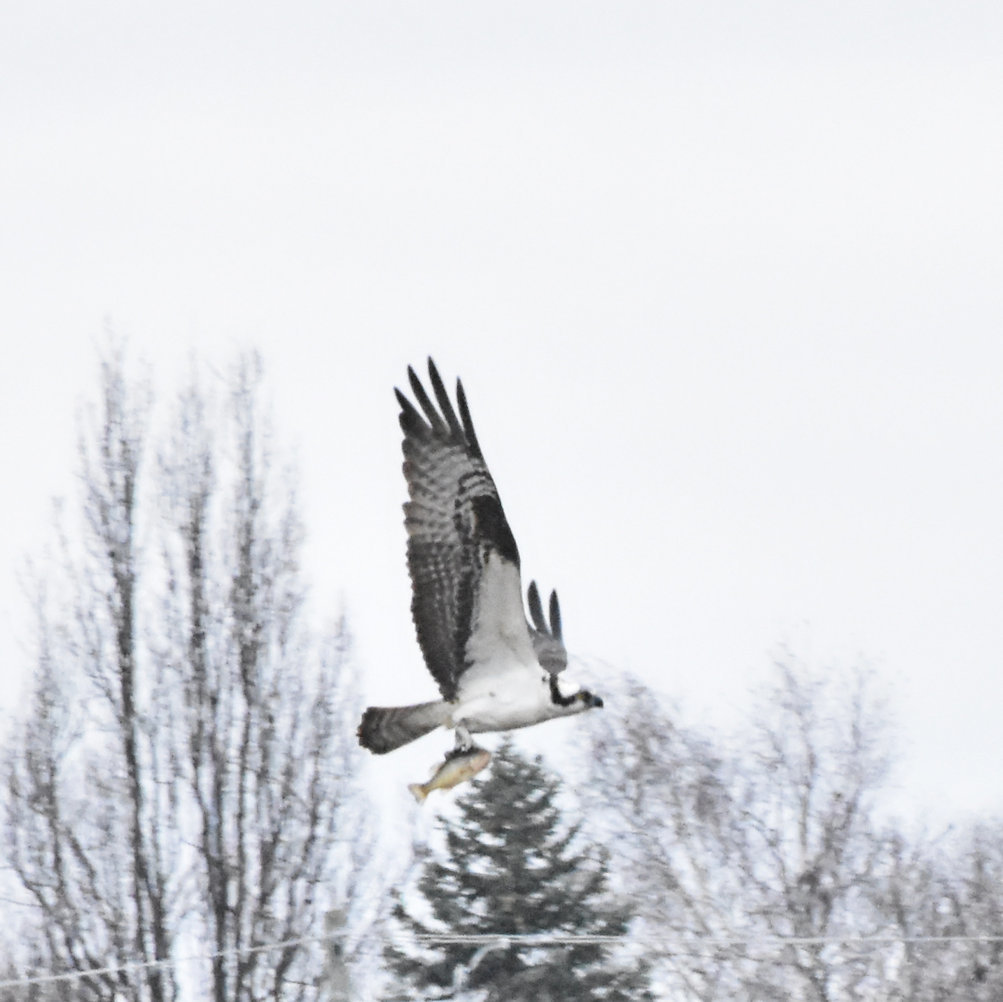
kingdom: Animalia
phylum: Chordata
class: Aves
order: Accipitriformes
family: Pandionidae
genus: Pandion
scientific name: Pandion haliaetus
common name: Osprey
